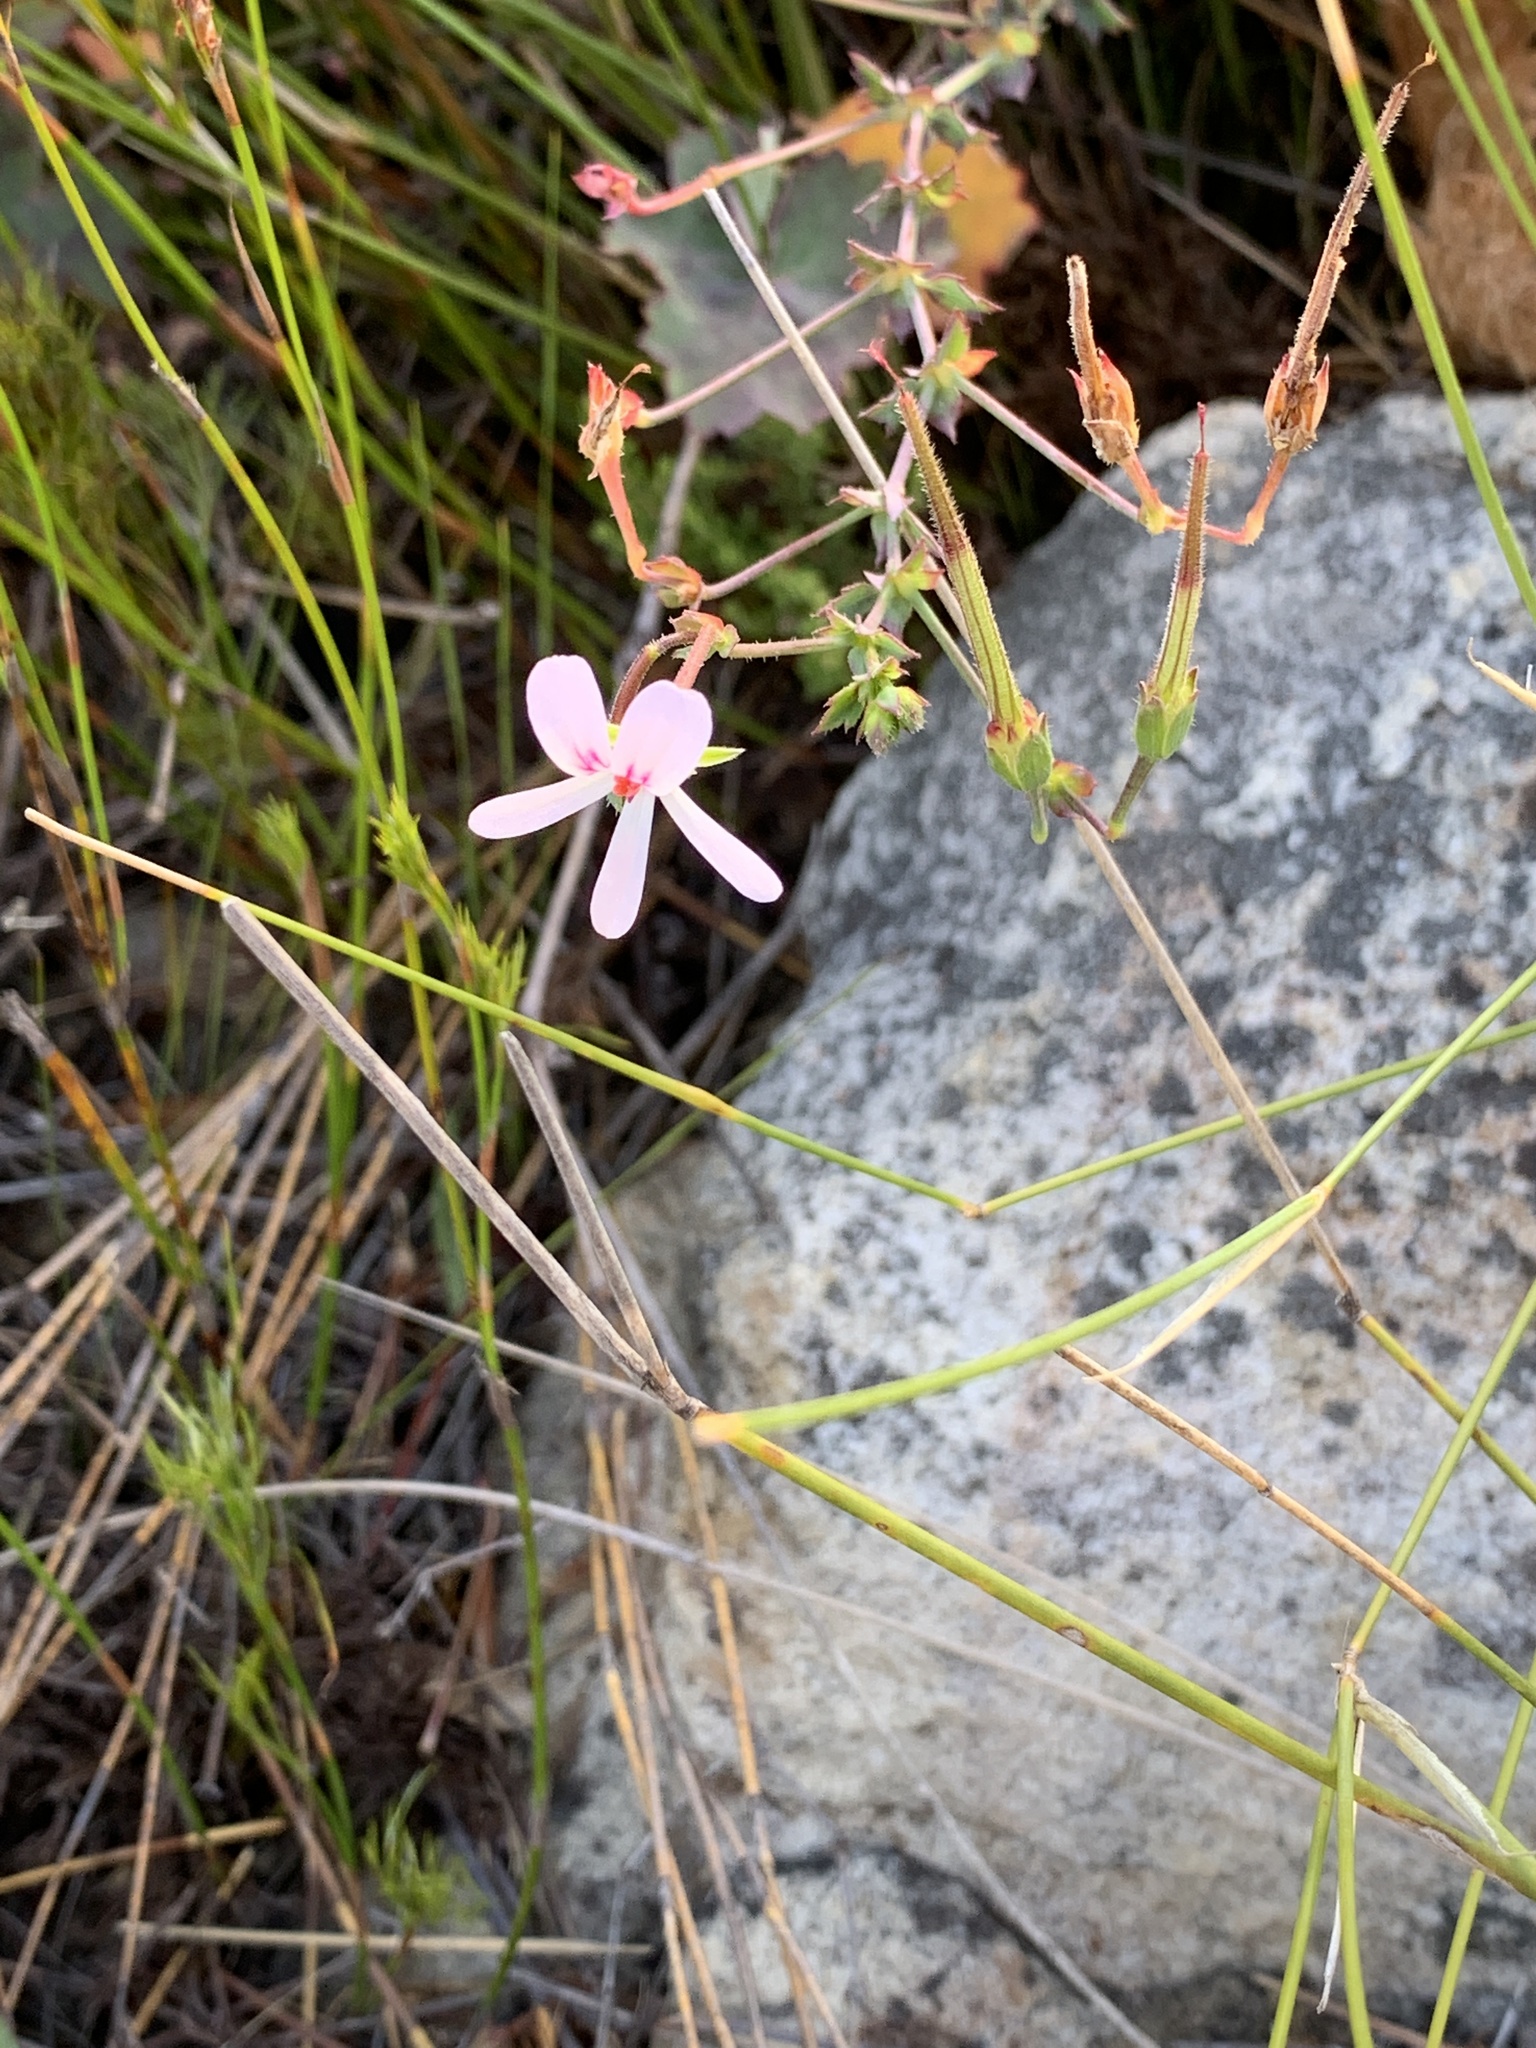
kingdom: Plantae
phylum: Tracheophyta
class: Magnoliopsida
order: Geraniales
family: Geraniaceae
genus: Pelargonium
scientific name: Pelargonium tabulare
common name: Table mountain pelargonium
